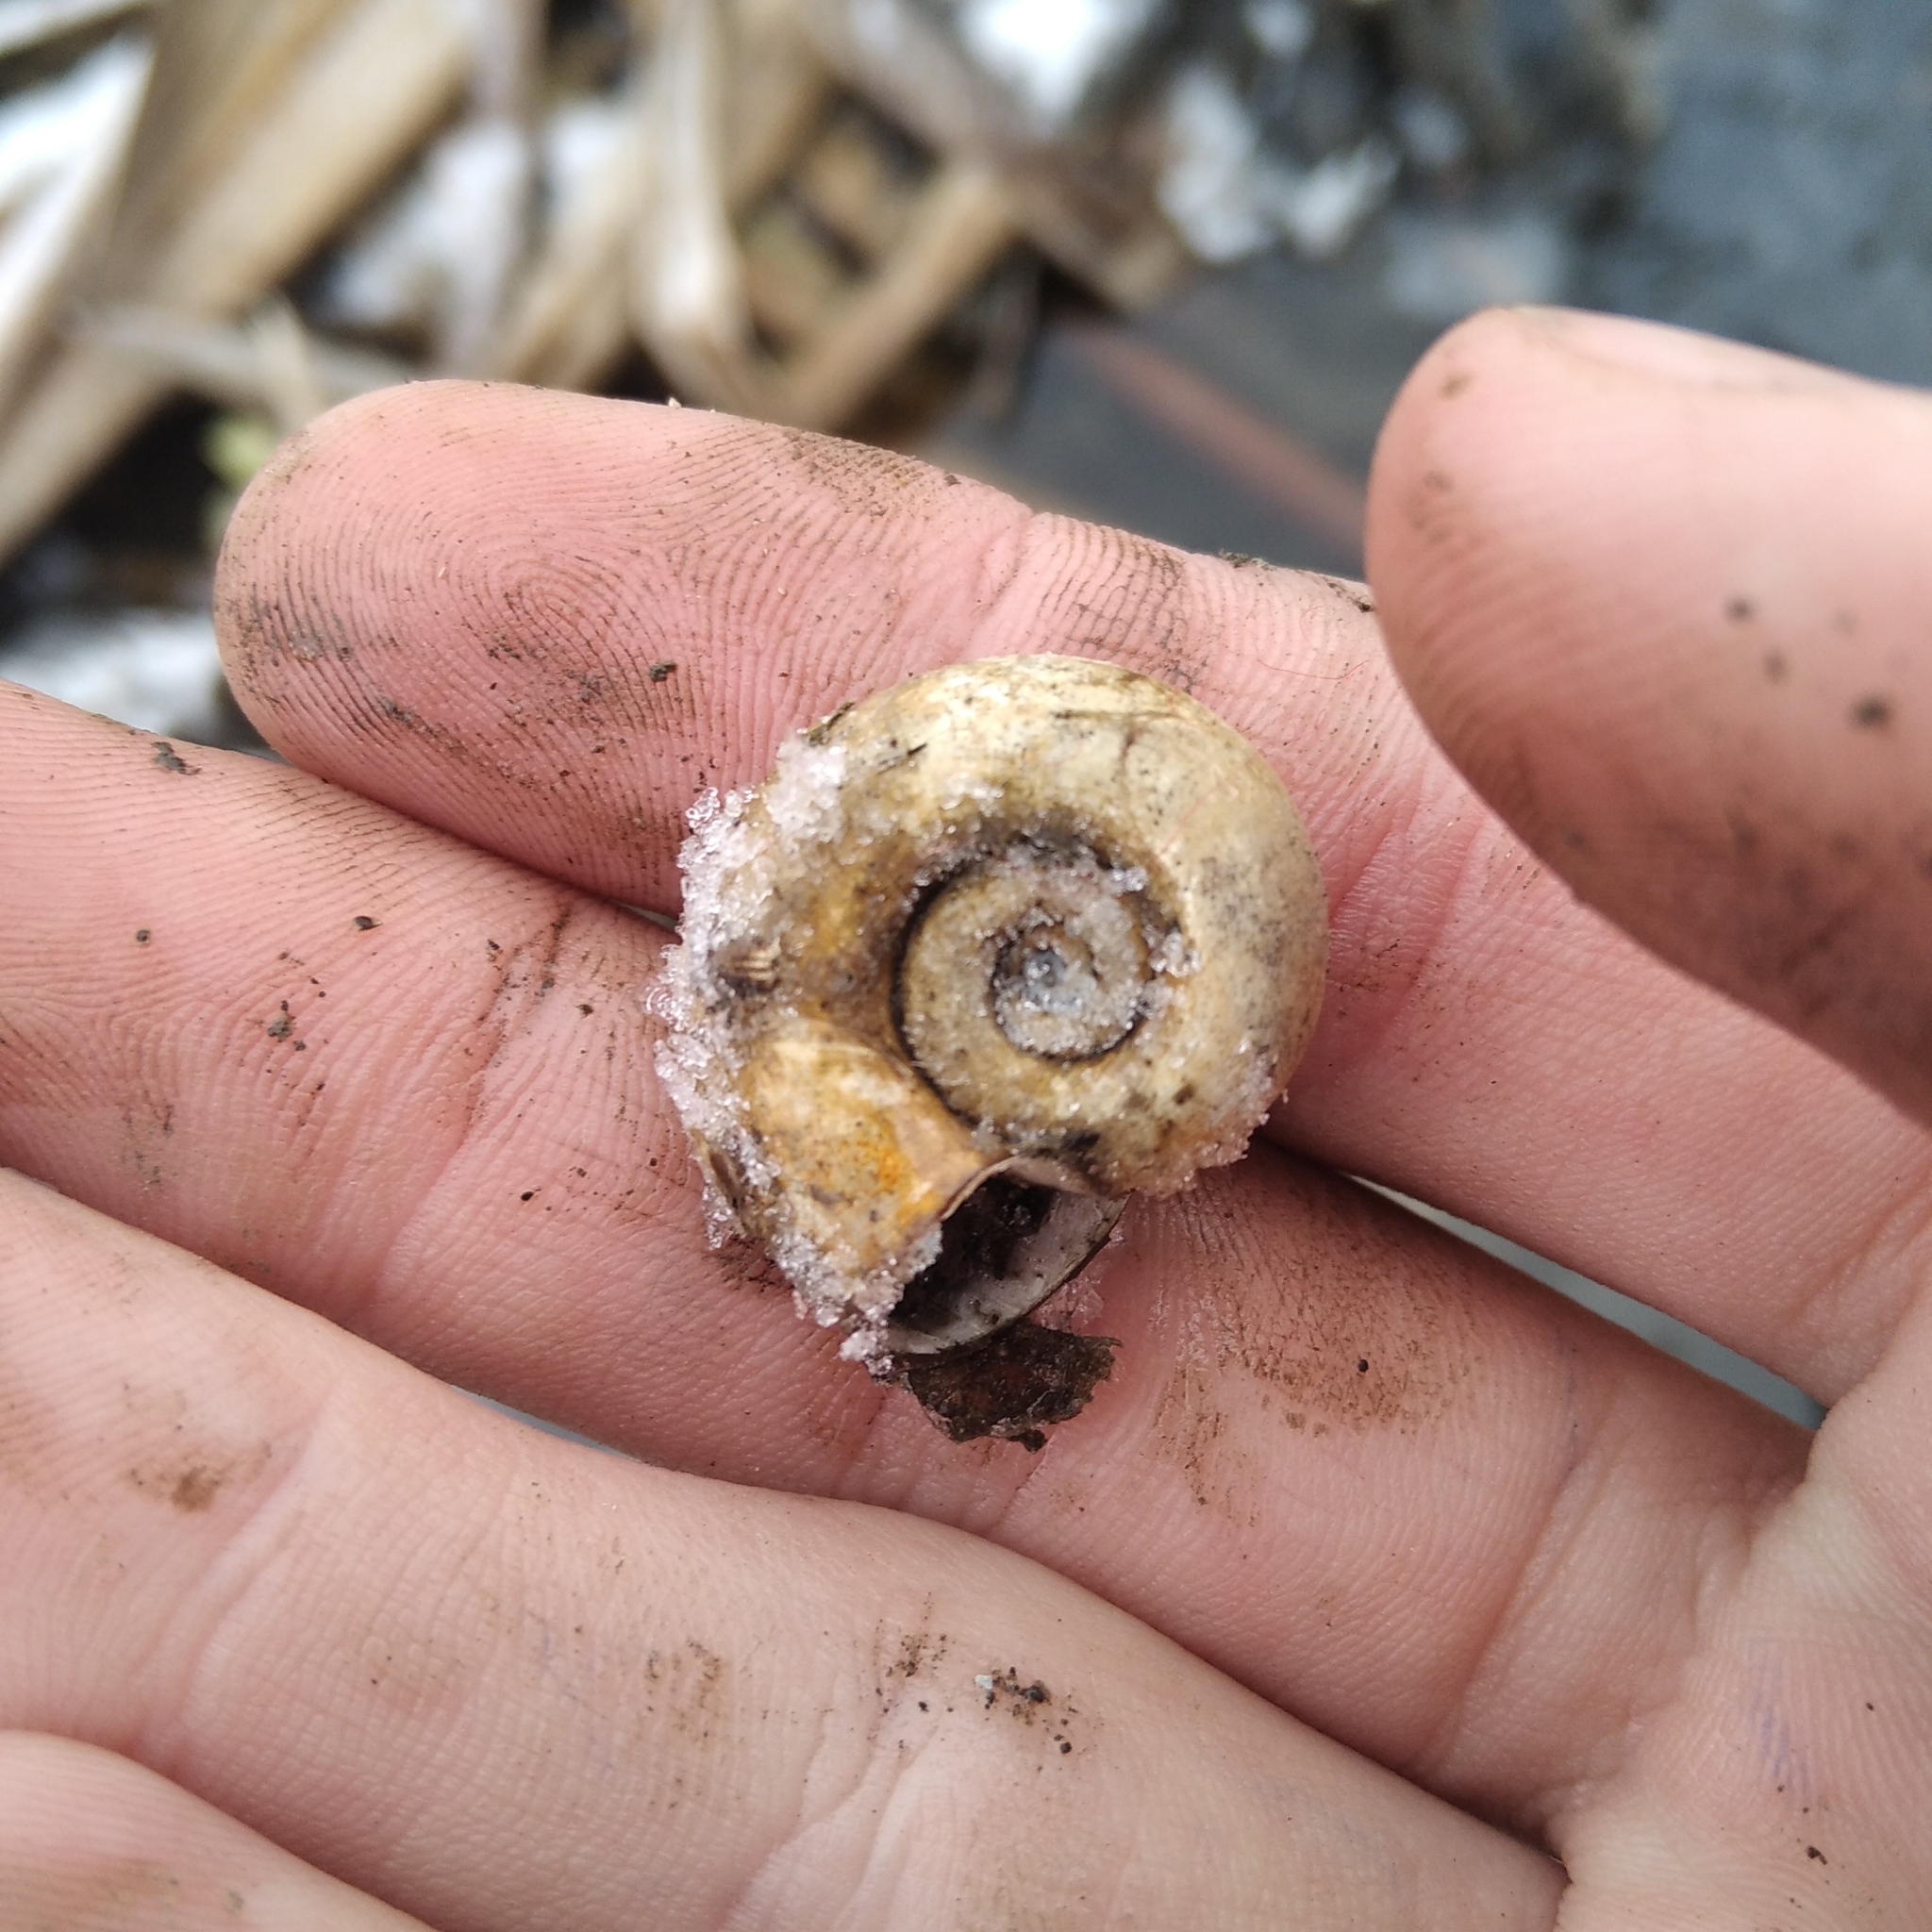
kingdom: Animalia
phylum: Mollusca
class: Gastropoda
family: Planorbidae
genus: Planorbarius
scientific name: Planorbarius corneus
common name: Great ramshorn
